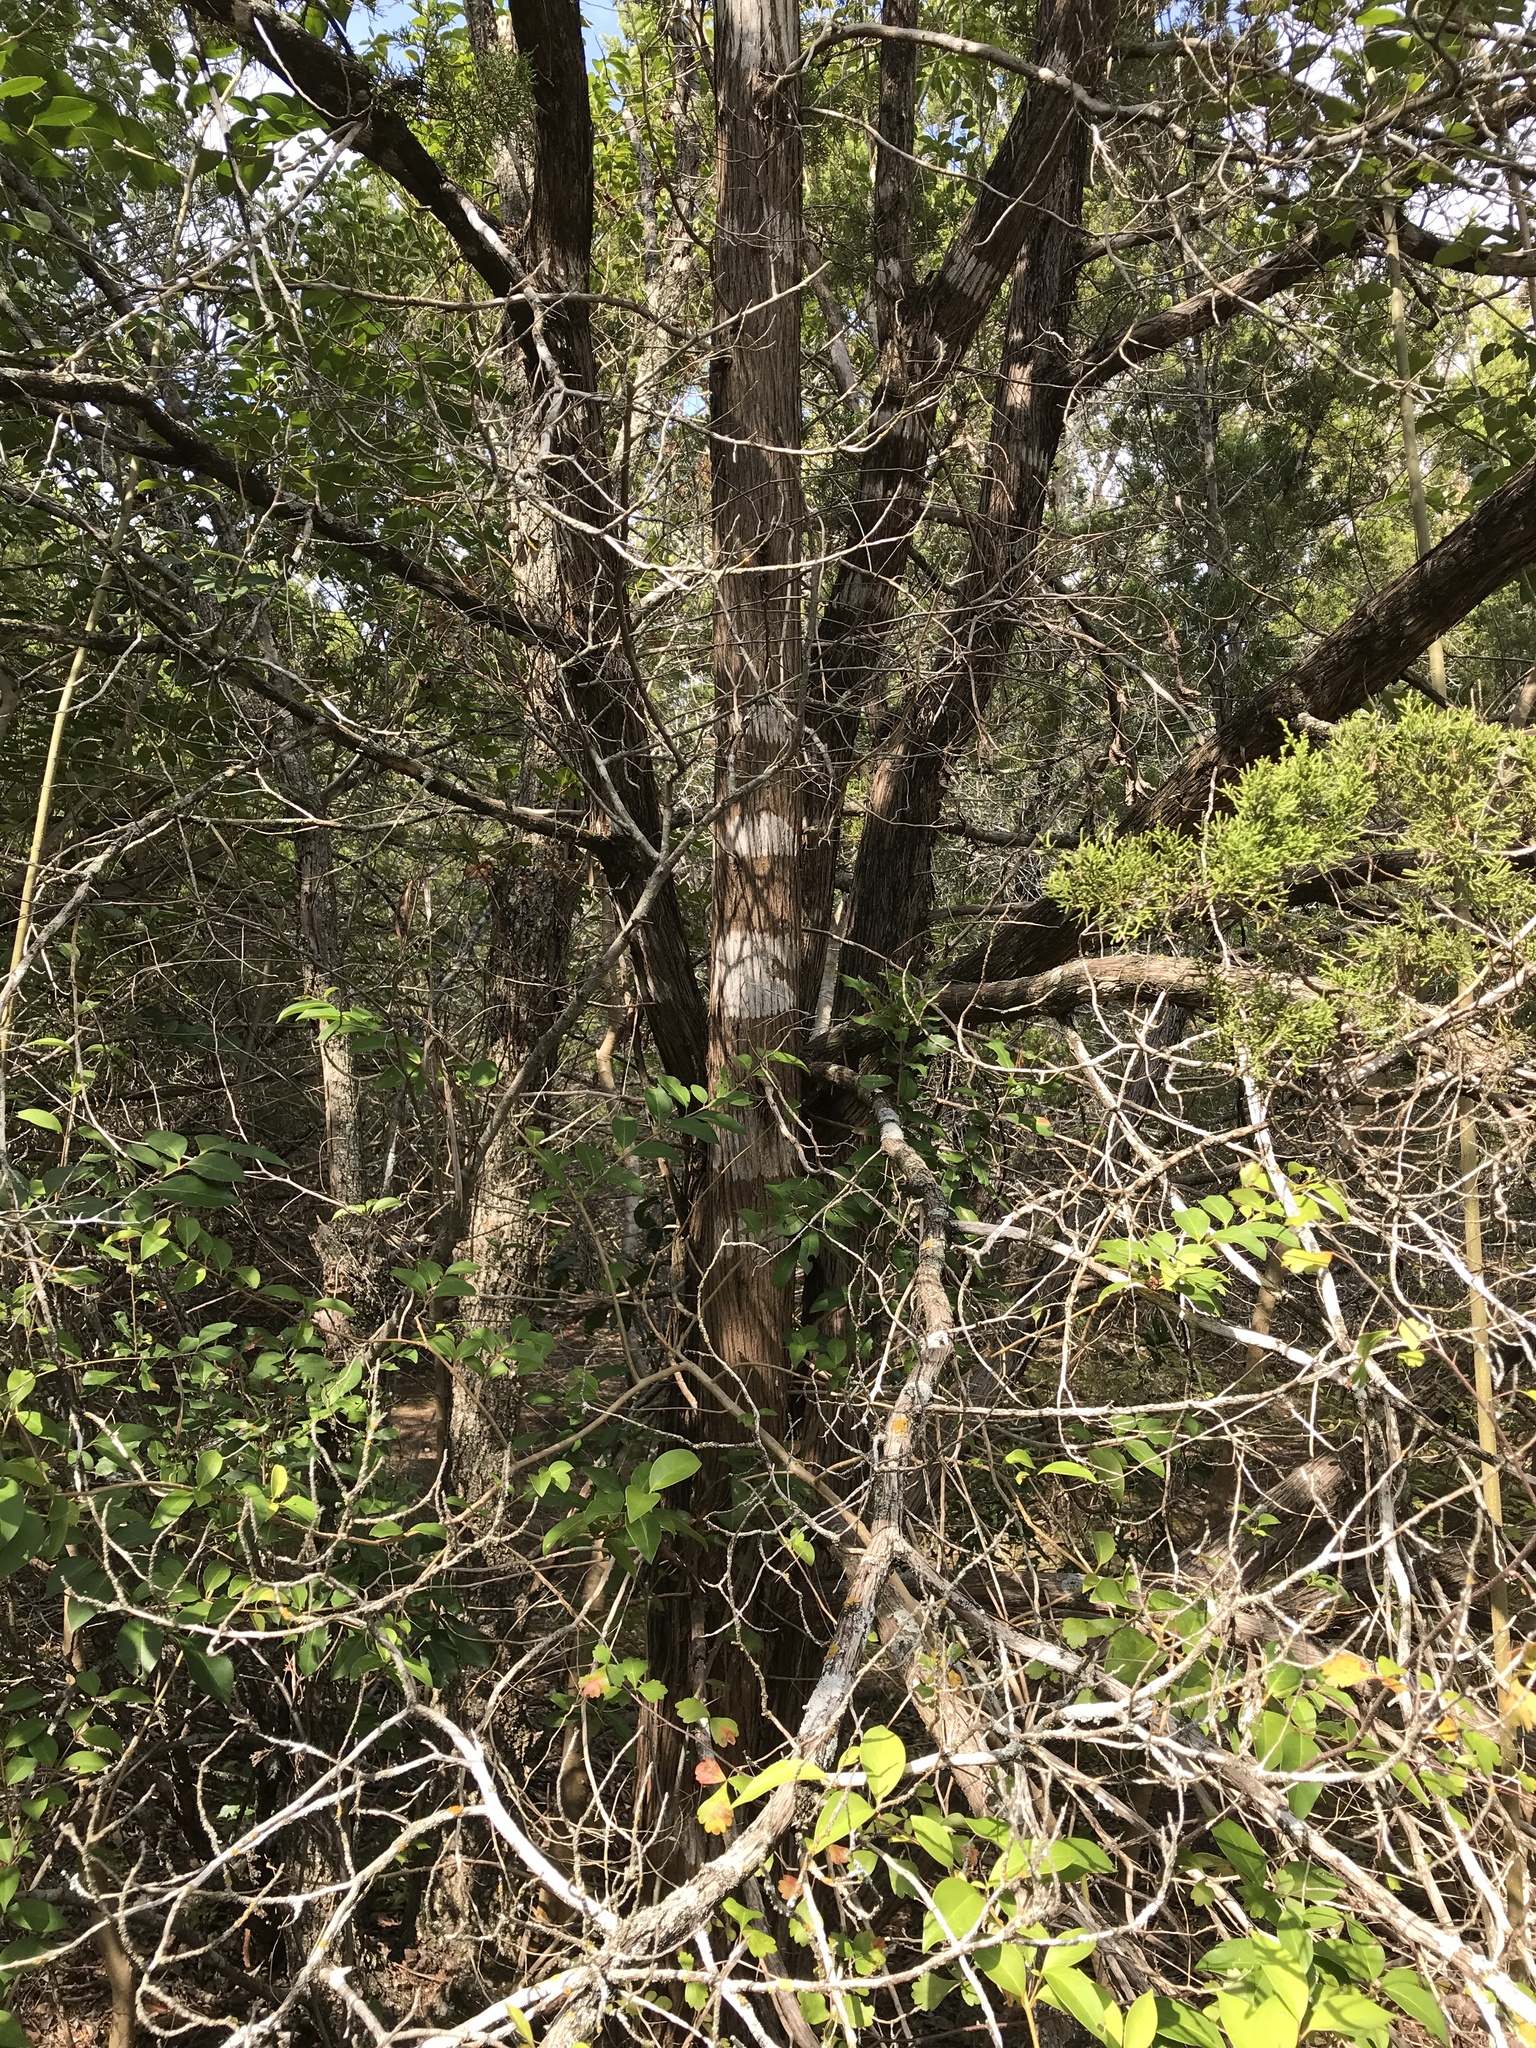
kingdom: Plantae
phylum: Tracheophyta
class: Pinopsida
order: Pinales
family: Cupressaceae
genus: Juniperus
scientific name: Juniperus ashei
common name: Mexican juniper
